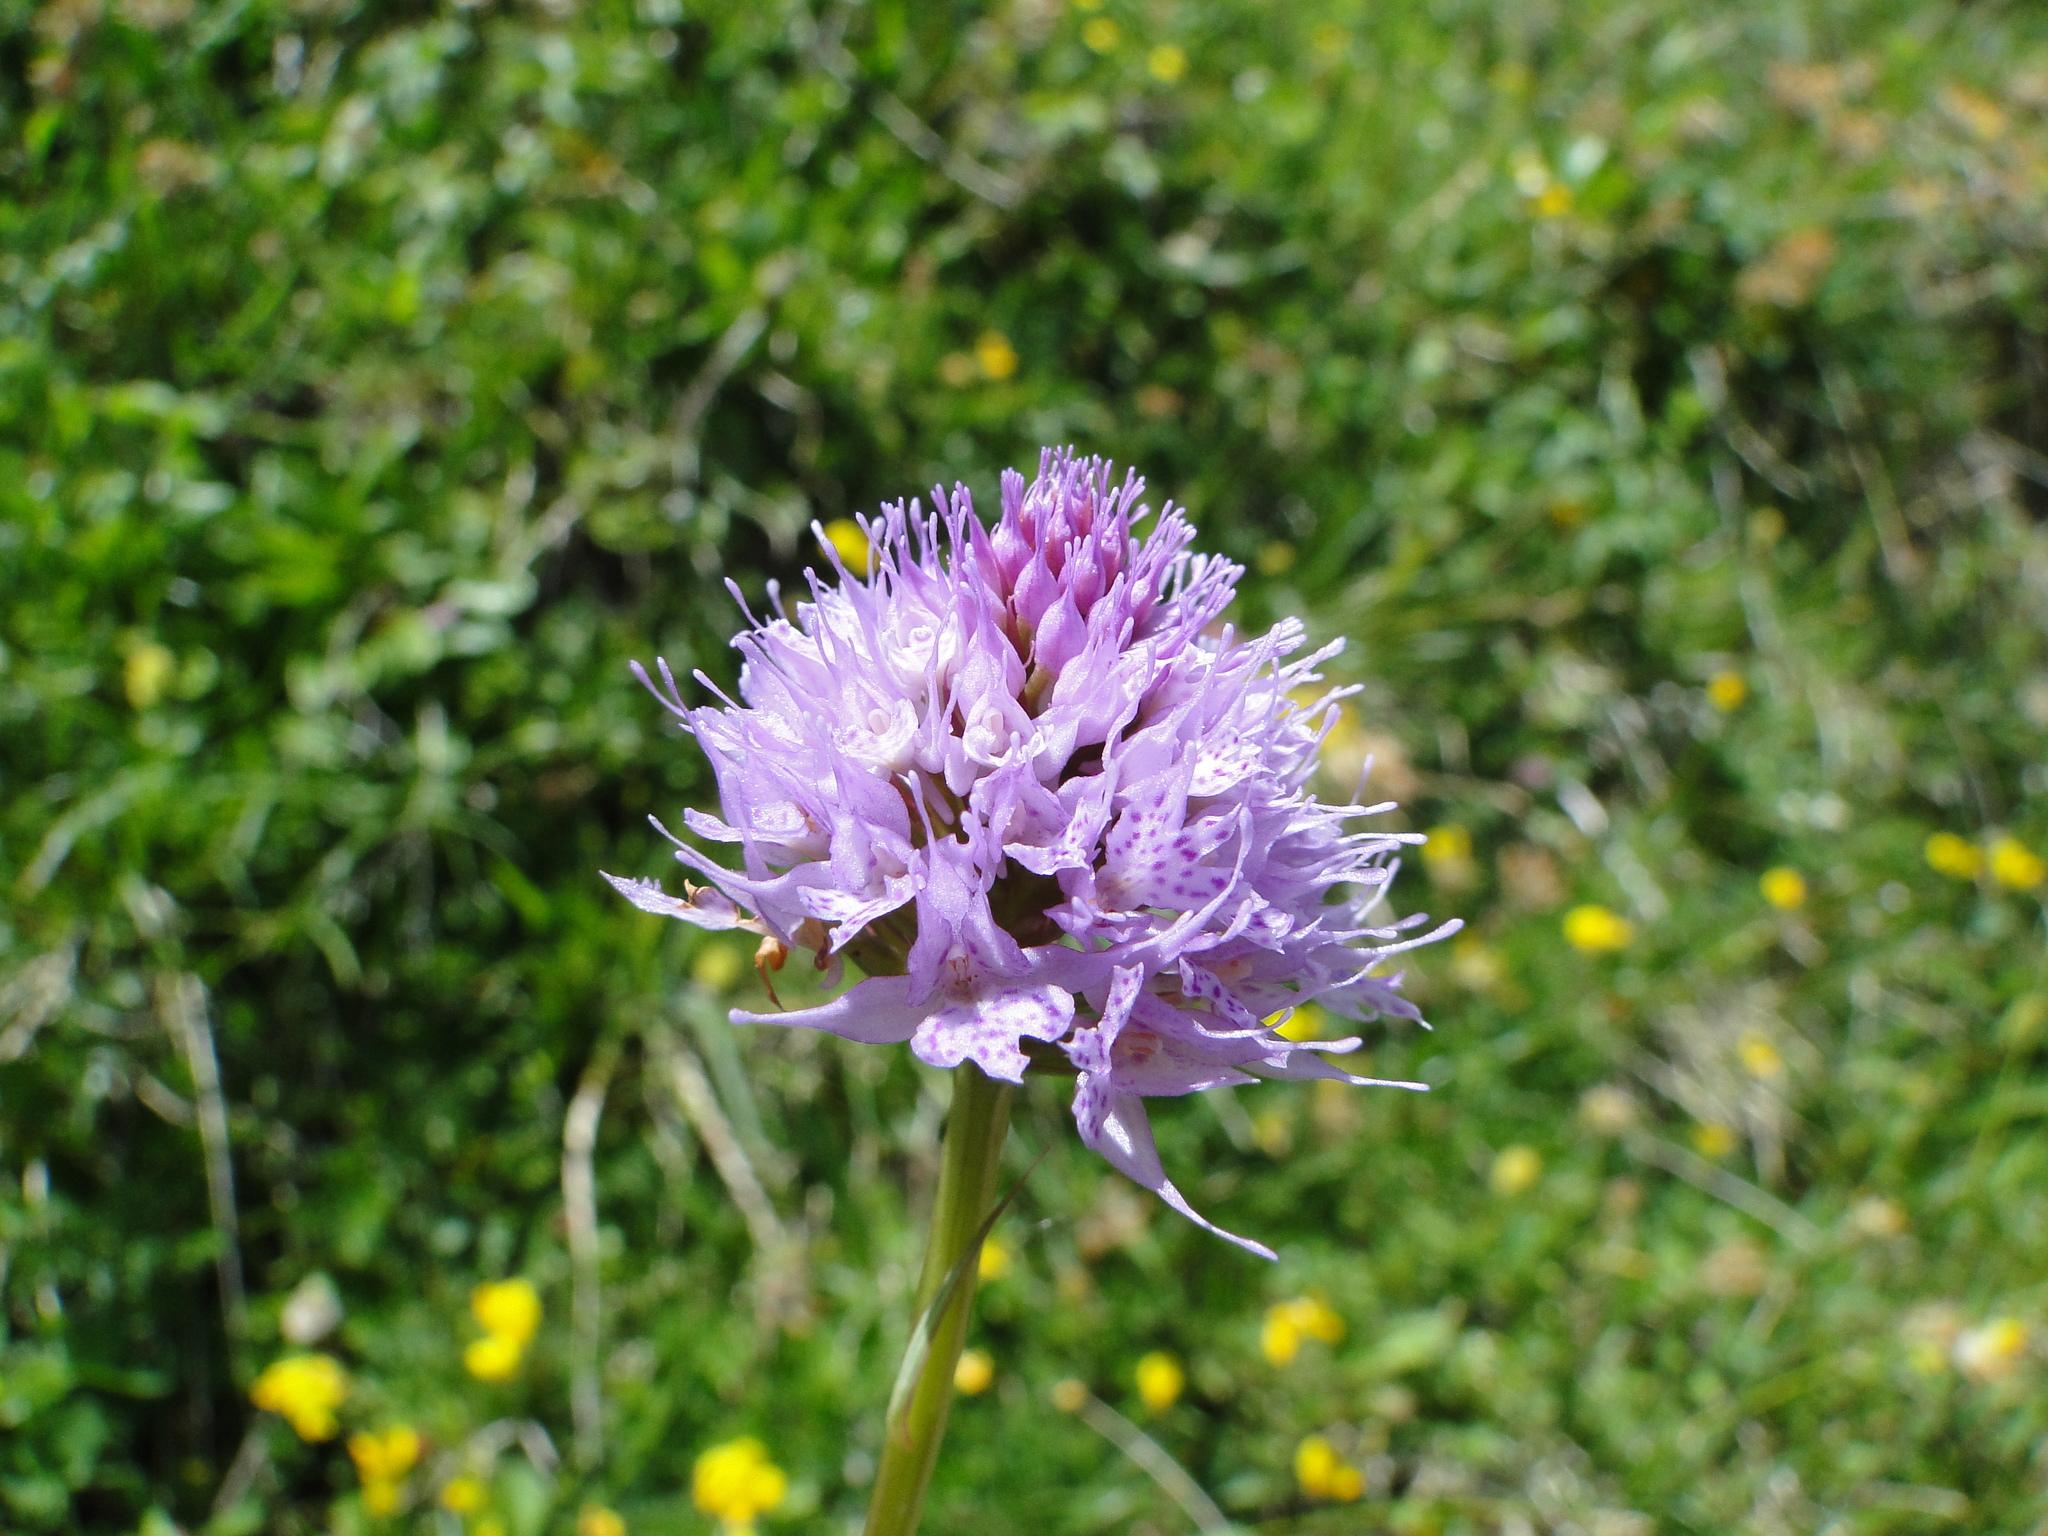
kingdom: Plantae
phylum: Tracheophyta
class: Liliopsida
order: Asparagales
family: Orchidaceae
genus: Traunsteinera
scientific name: Traunsteinera globosa
